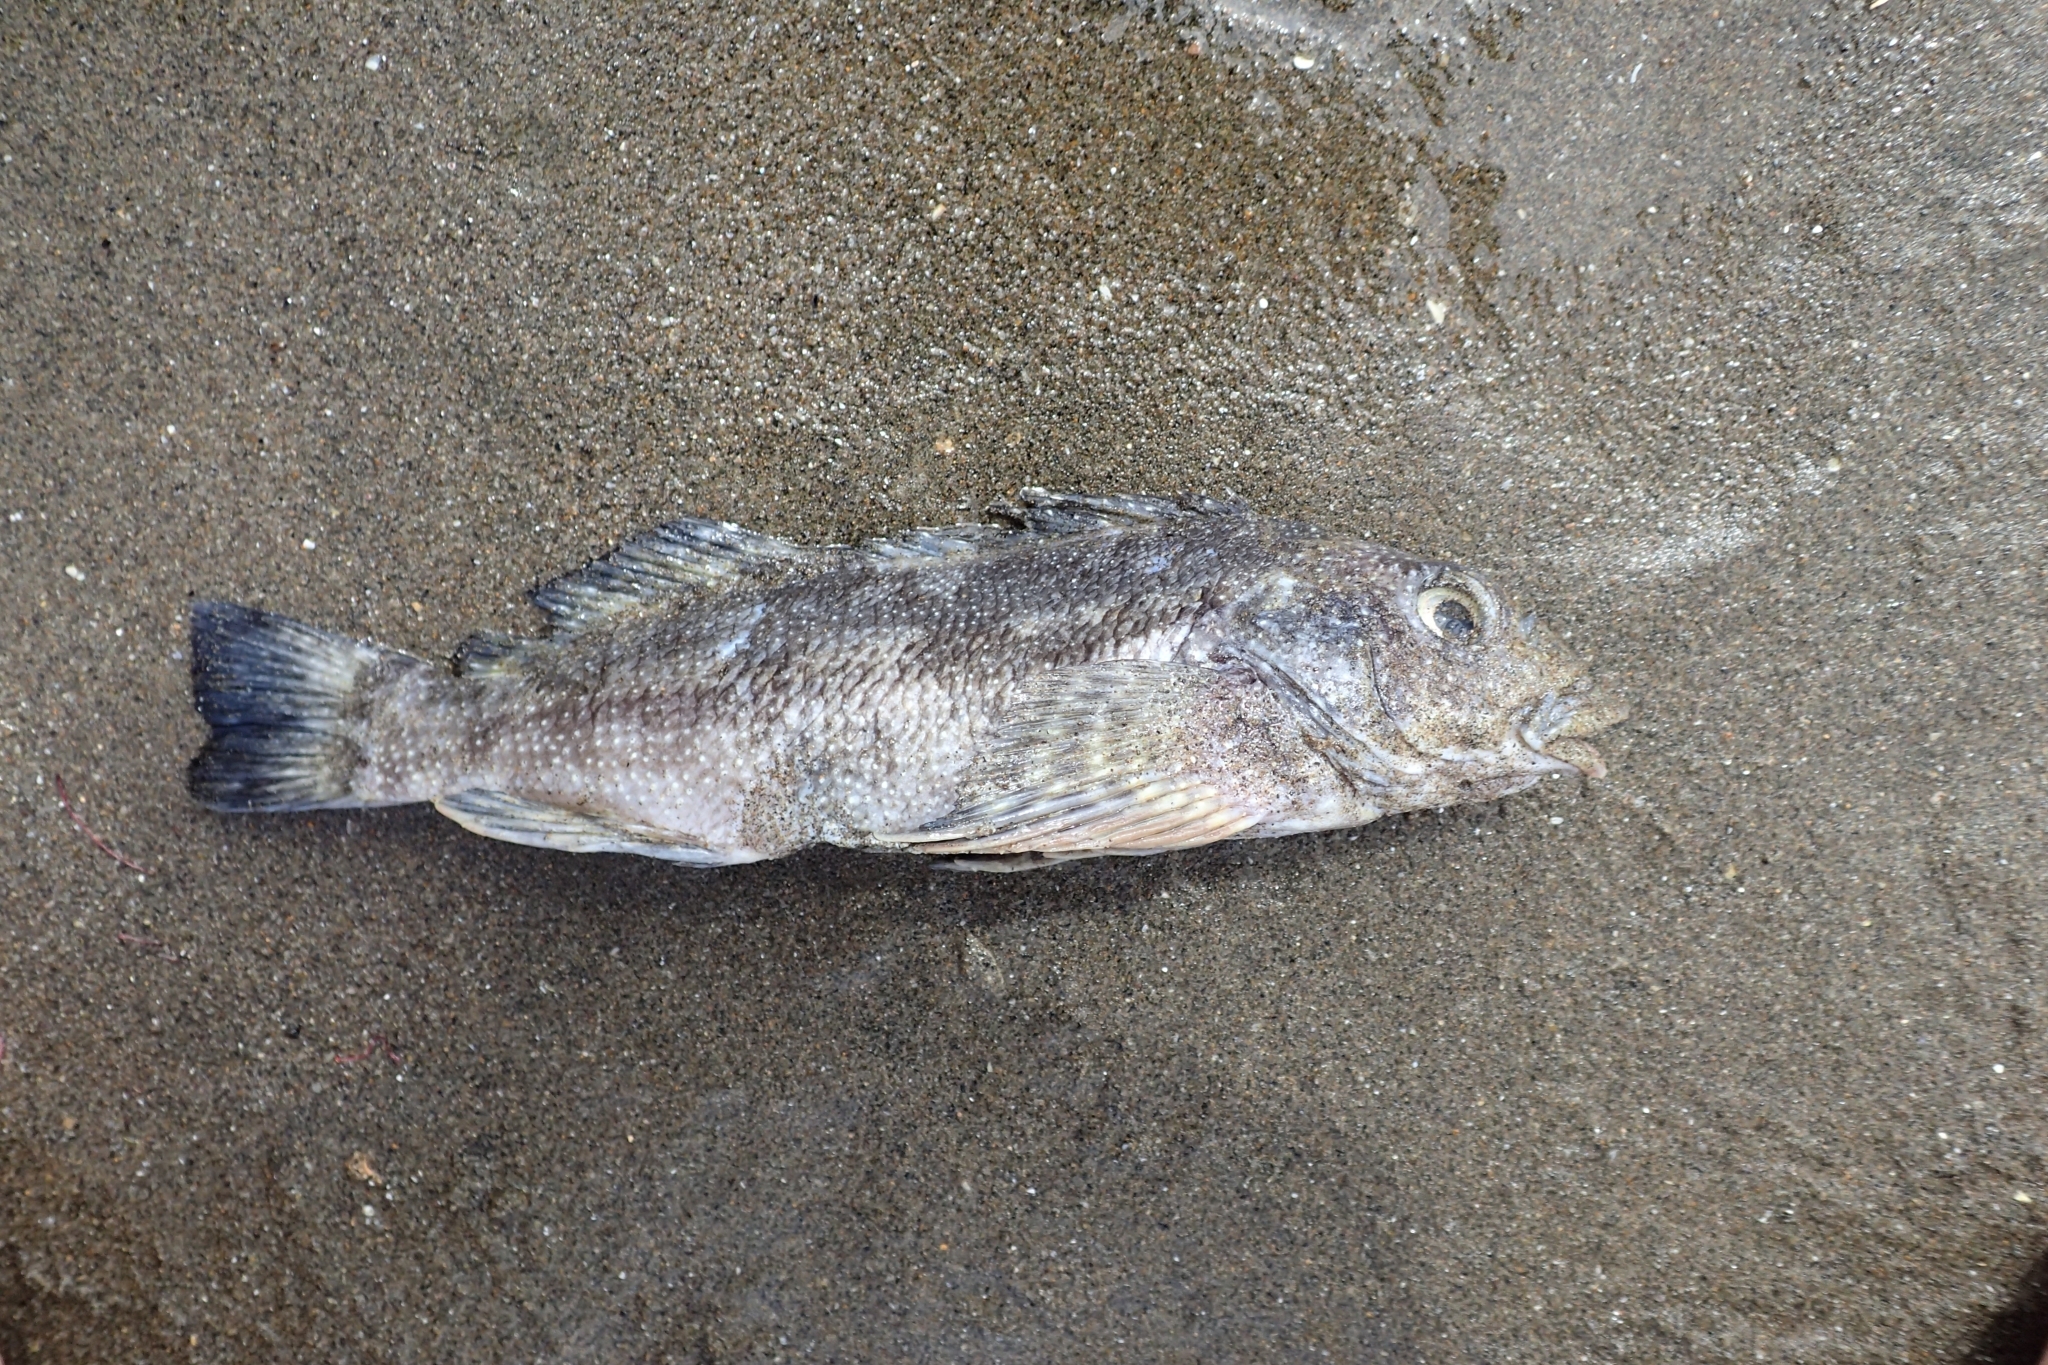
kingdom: Animalia
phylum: Chordata
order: Perciformes
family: Chironemidae
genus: Chironemus
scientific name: Chironemus marmoratus
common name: Kelpfish
